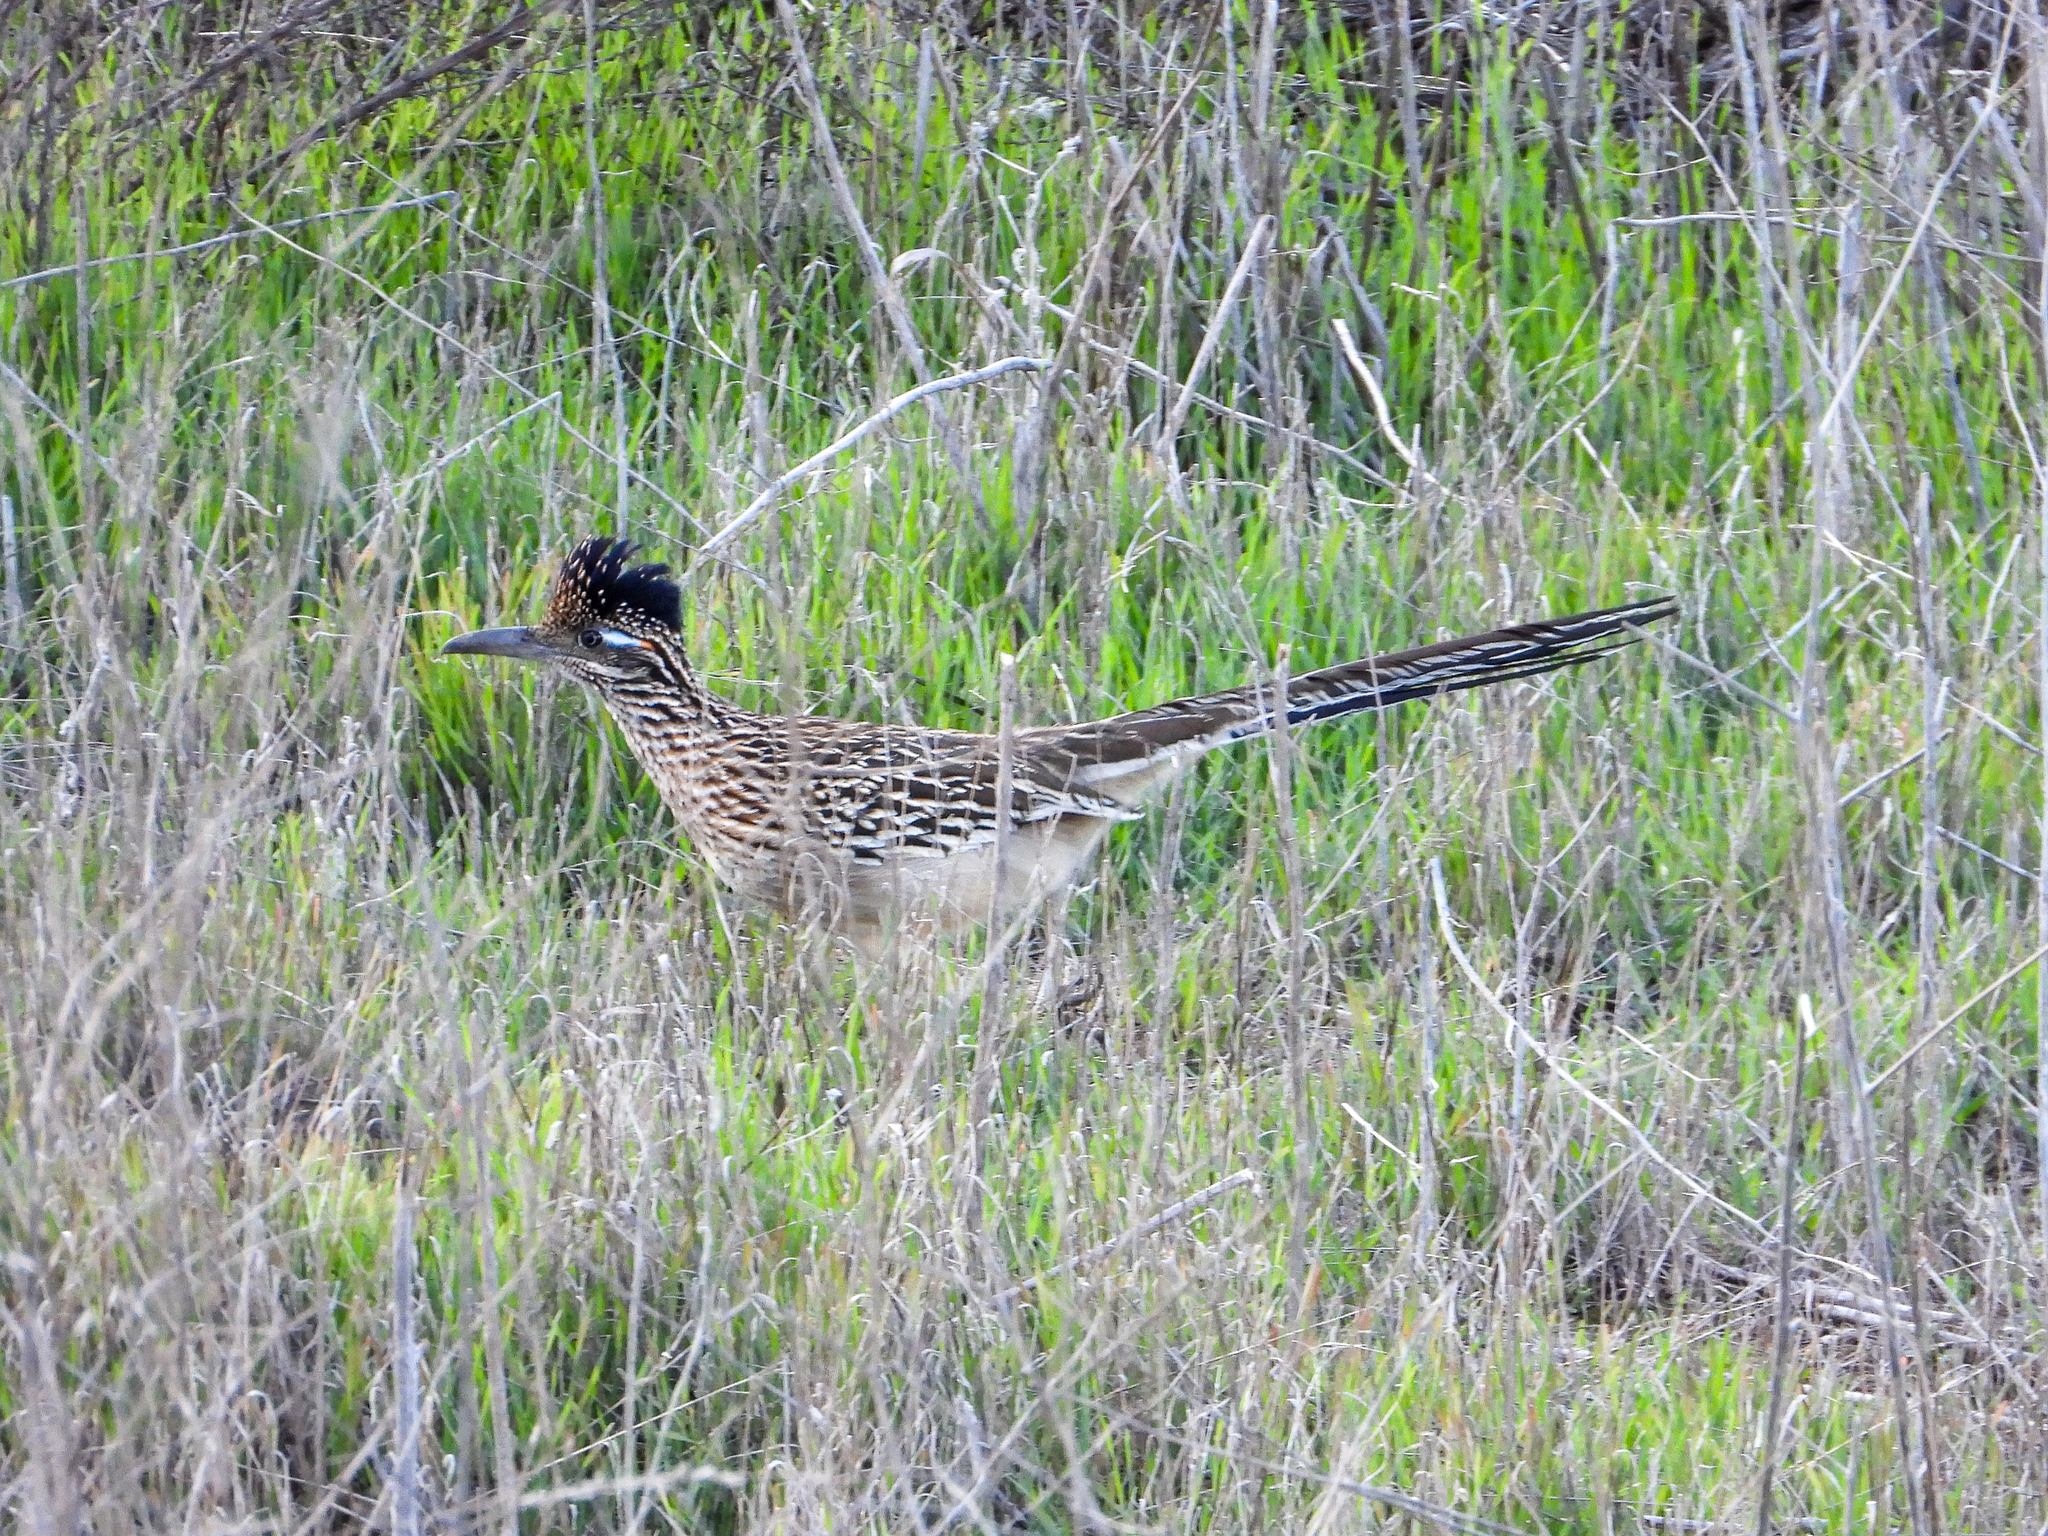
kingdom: Animalia
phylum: Chordata
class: Aves
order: Cuculiformes
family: Cuculidae
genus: Geococcyx
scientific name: Geococcyx californianus
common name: Greater roadrunner
